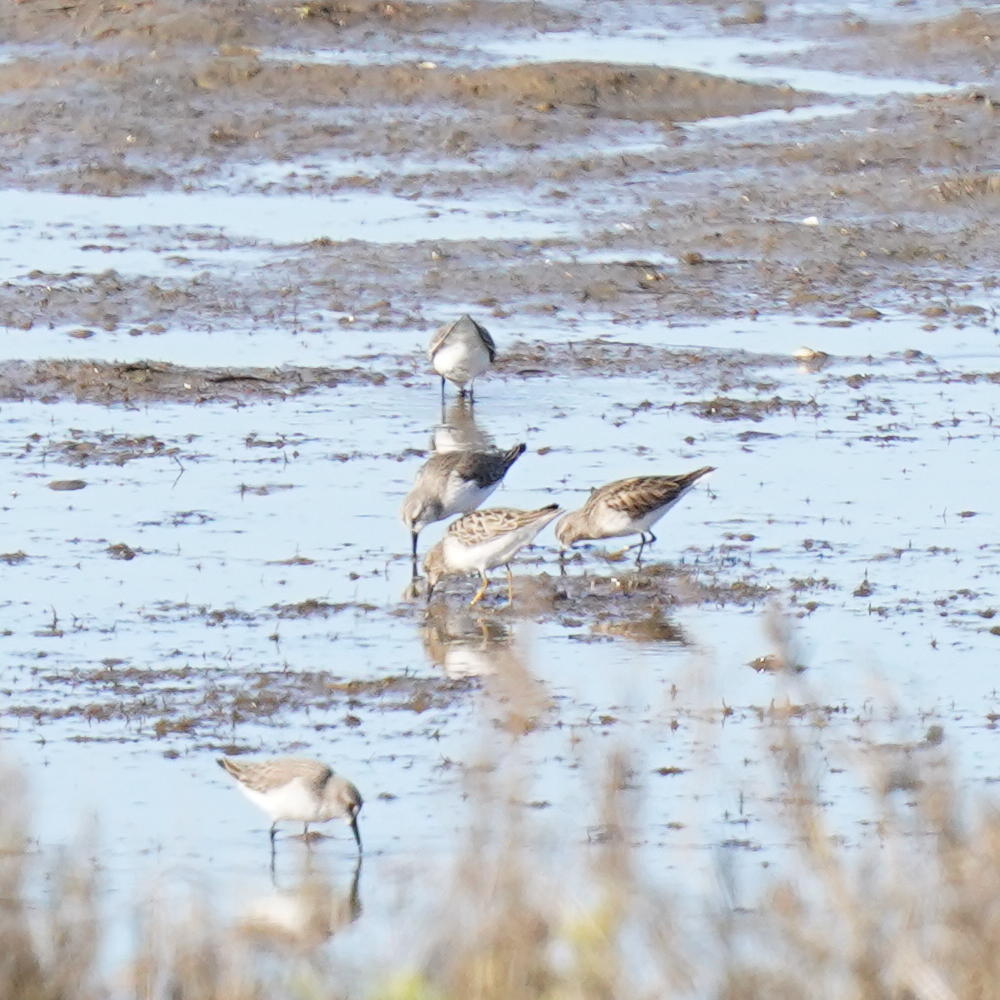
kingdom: Animalia
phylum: Chordata
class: Aves
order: Charadriiformes
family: Scolopacidae
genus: Calidris
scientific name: Calidris mauri
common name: Western sandpiper
